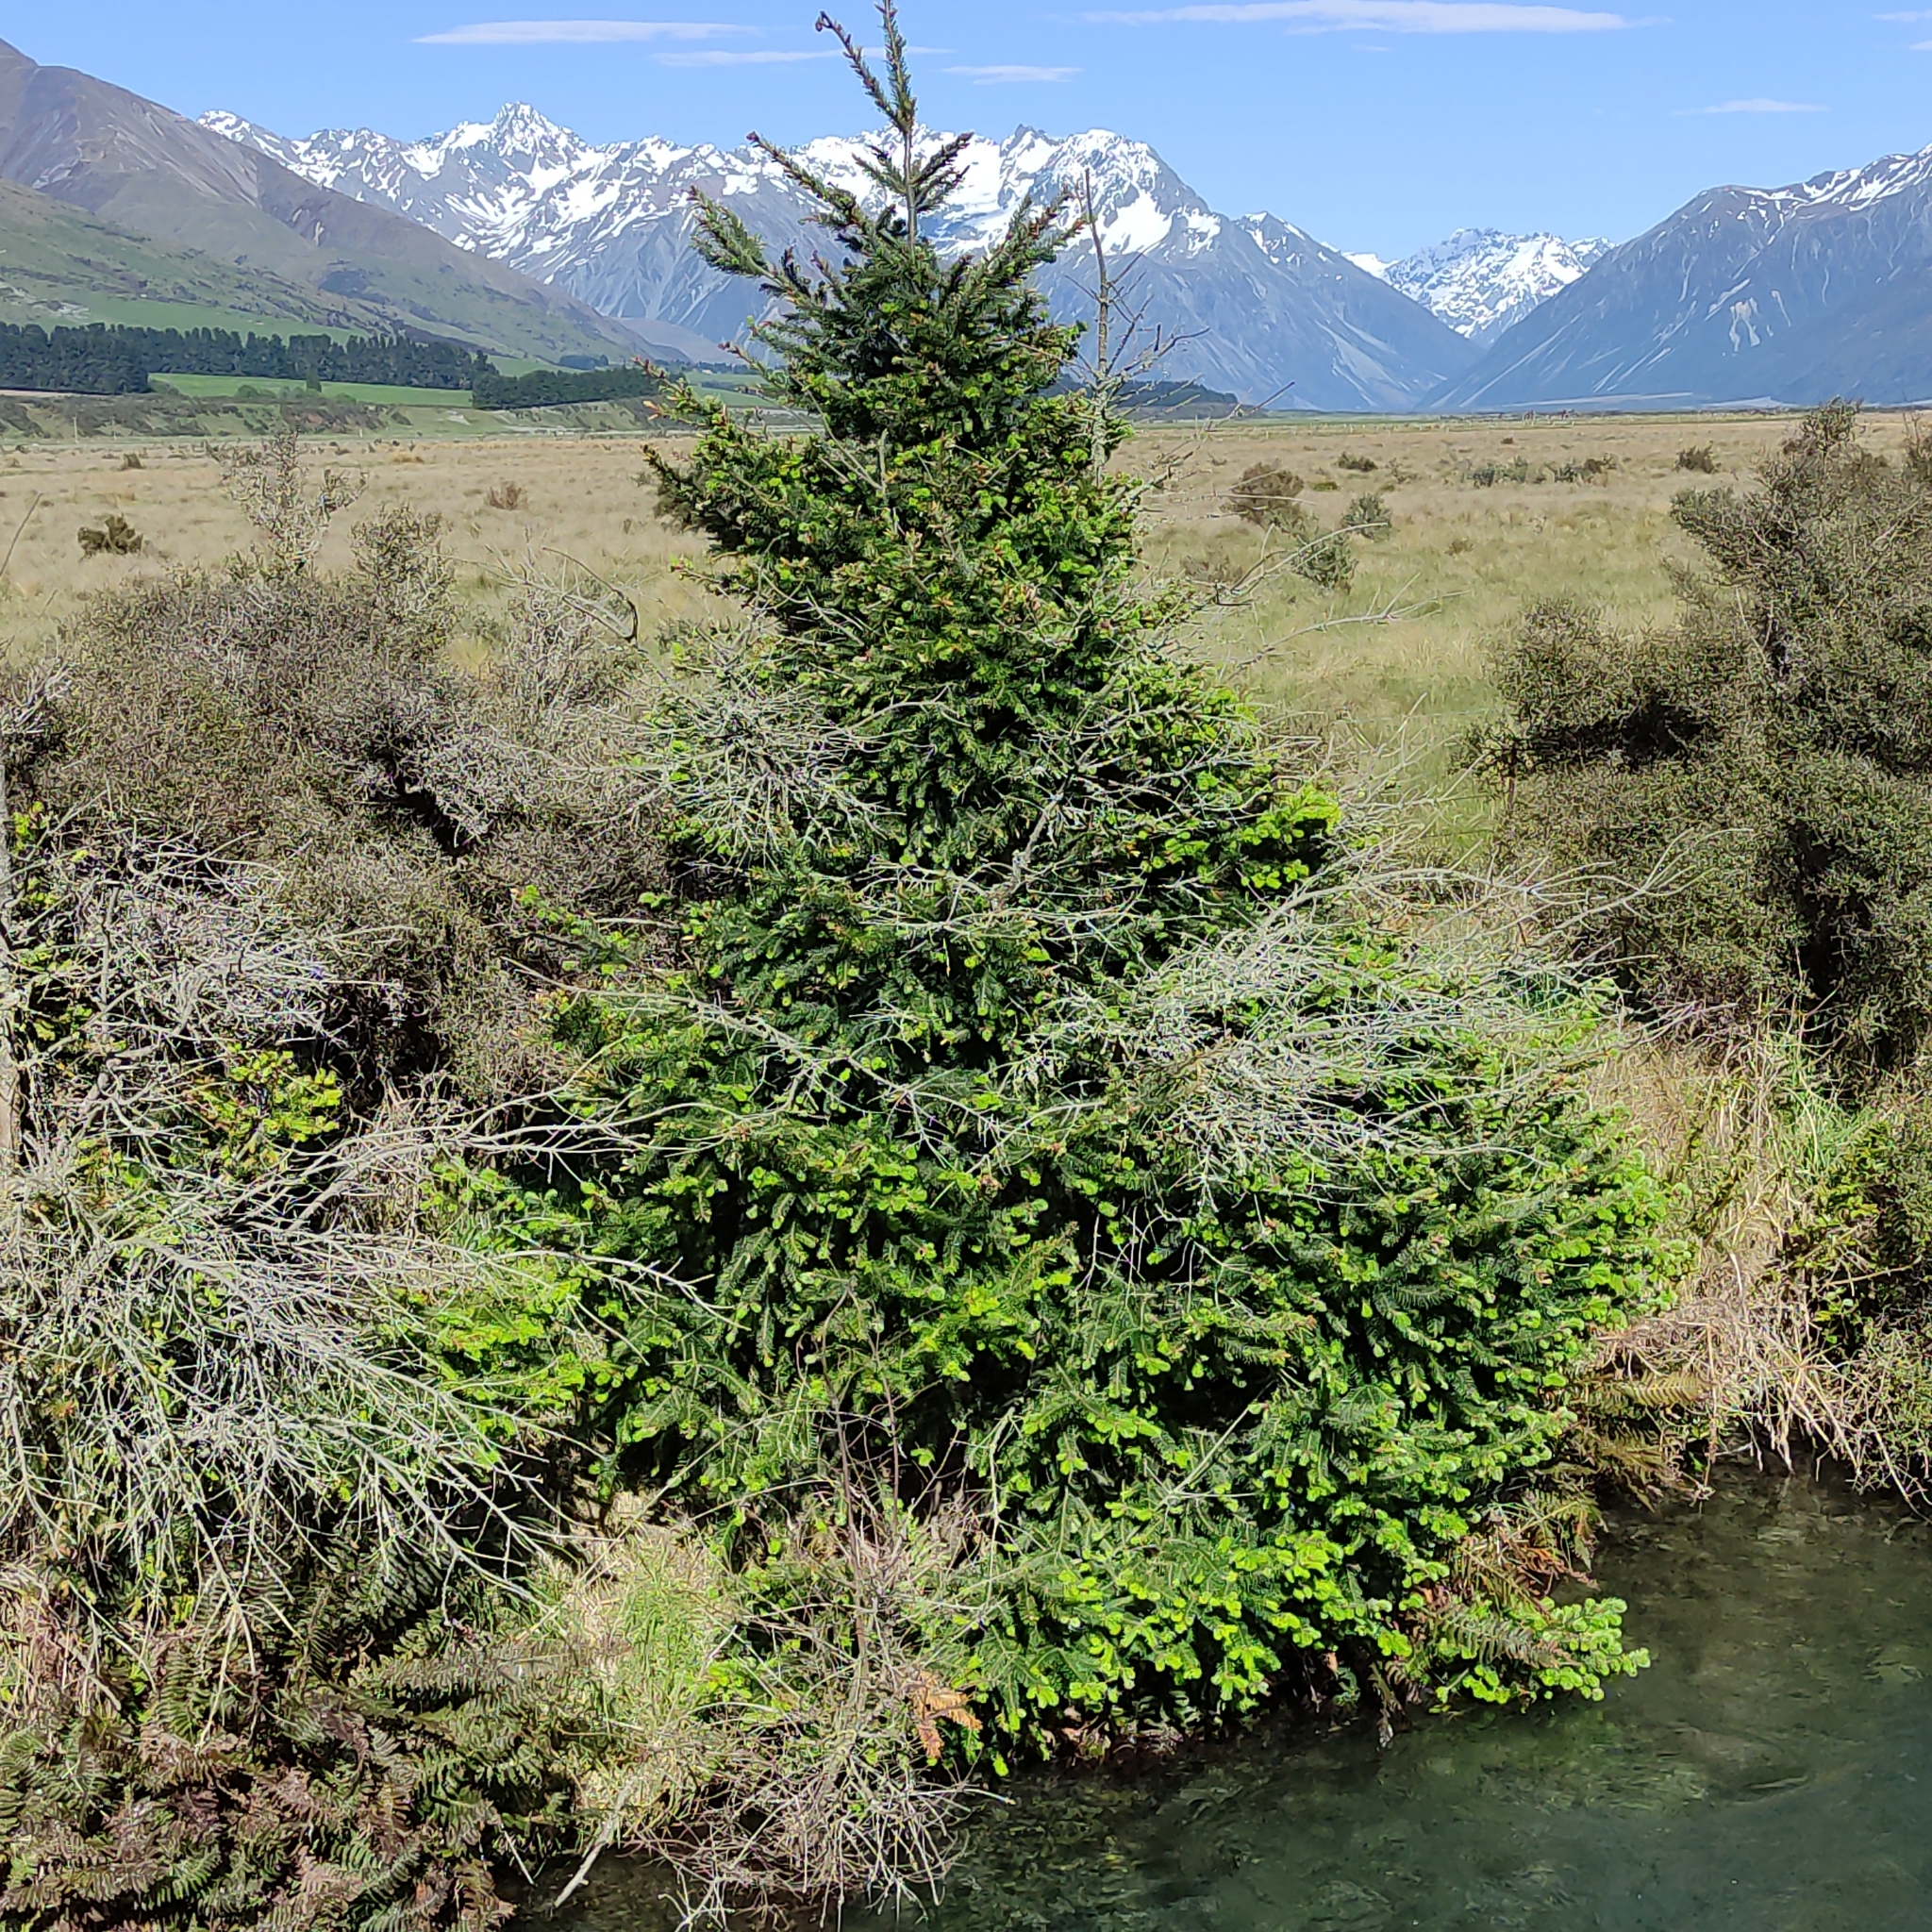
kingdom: Plantae
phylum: Tracheophyta
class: Pinopsida
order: Pinales
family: Pinaceae
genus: Pseudotsuga
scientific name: Pseudotsuga menziesii
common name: Douglas fir
